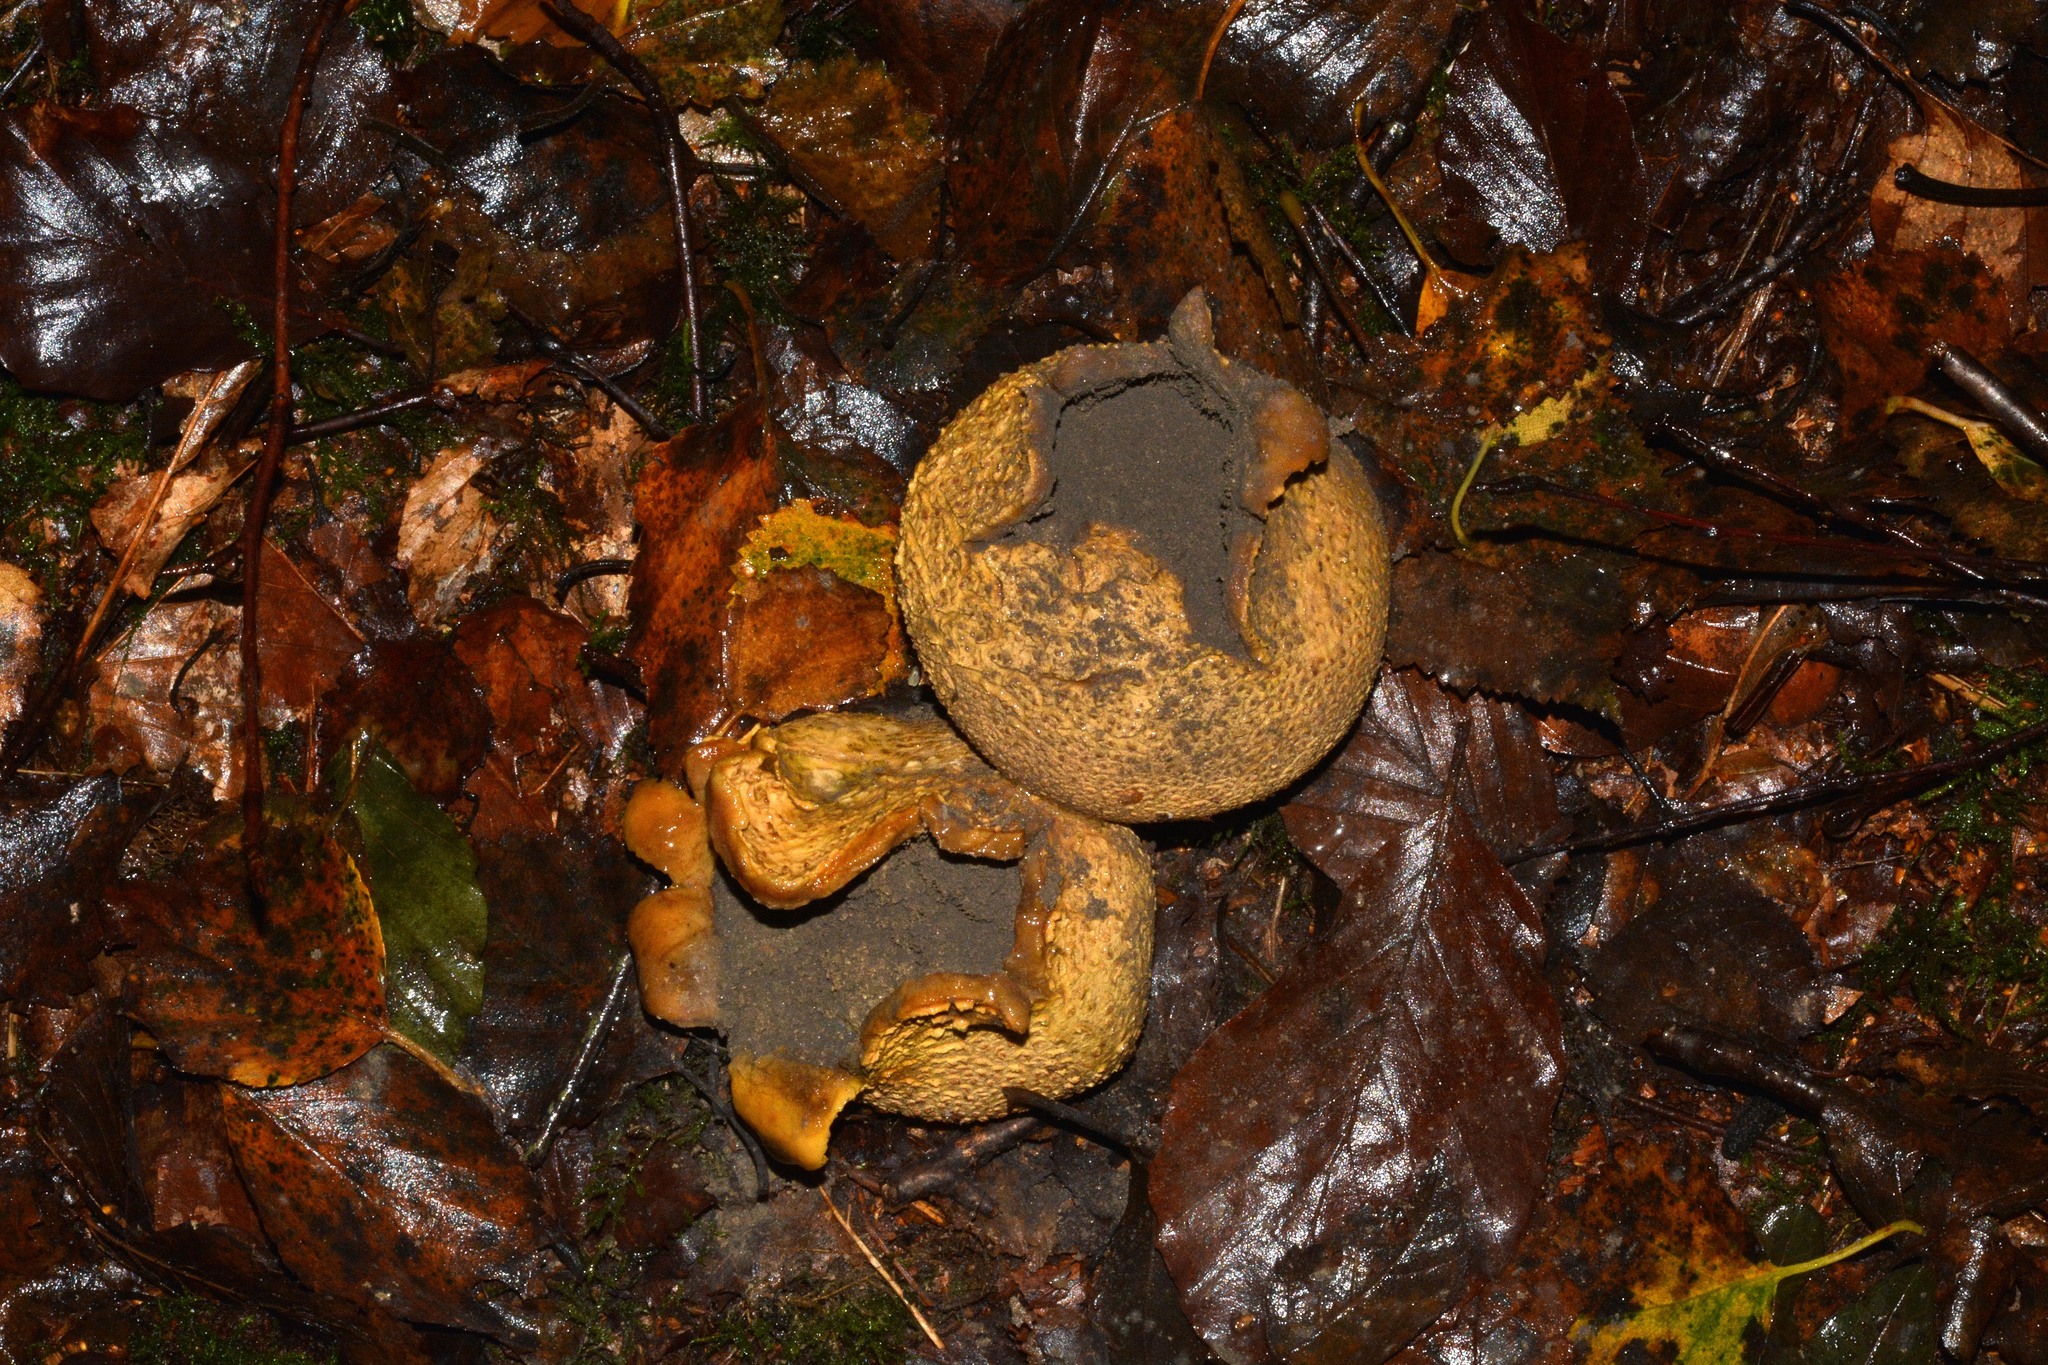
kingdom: Fungi
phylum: Basidiomycota
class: Agaricomycetes
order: Boletales
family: Sclerodermataceae
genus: Scleroderma
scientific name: Scleroderma citrinum
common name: Common earthball
